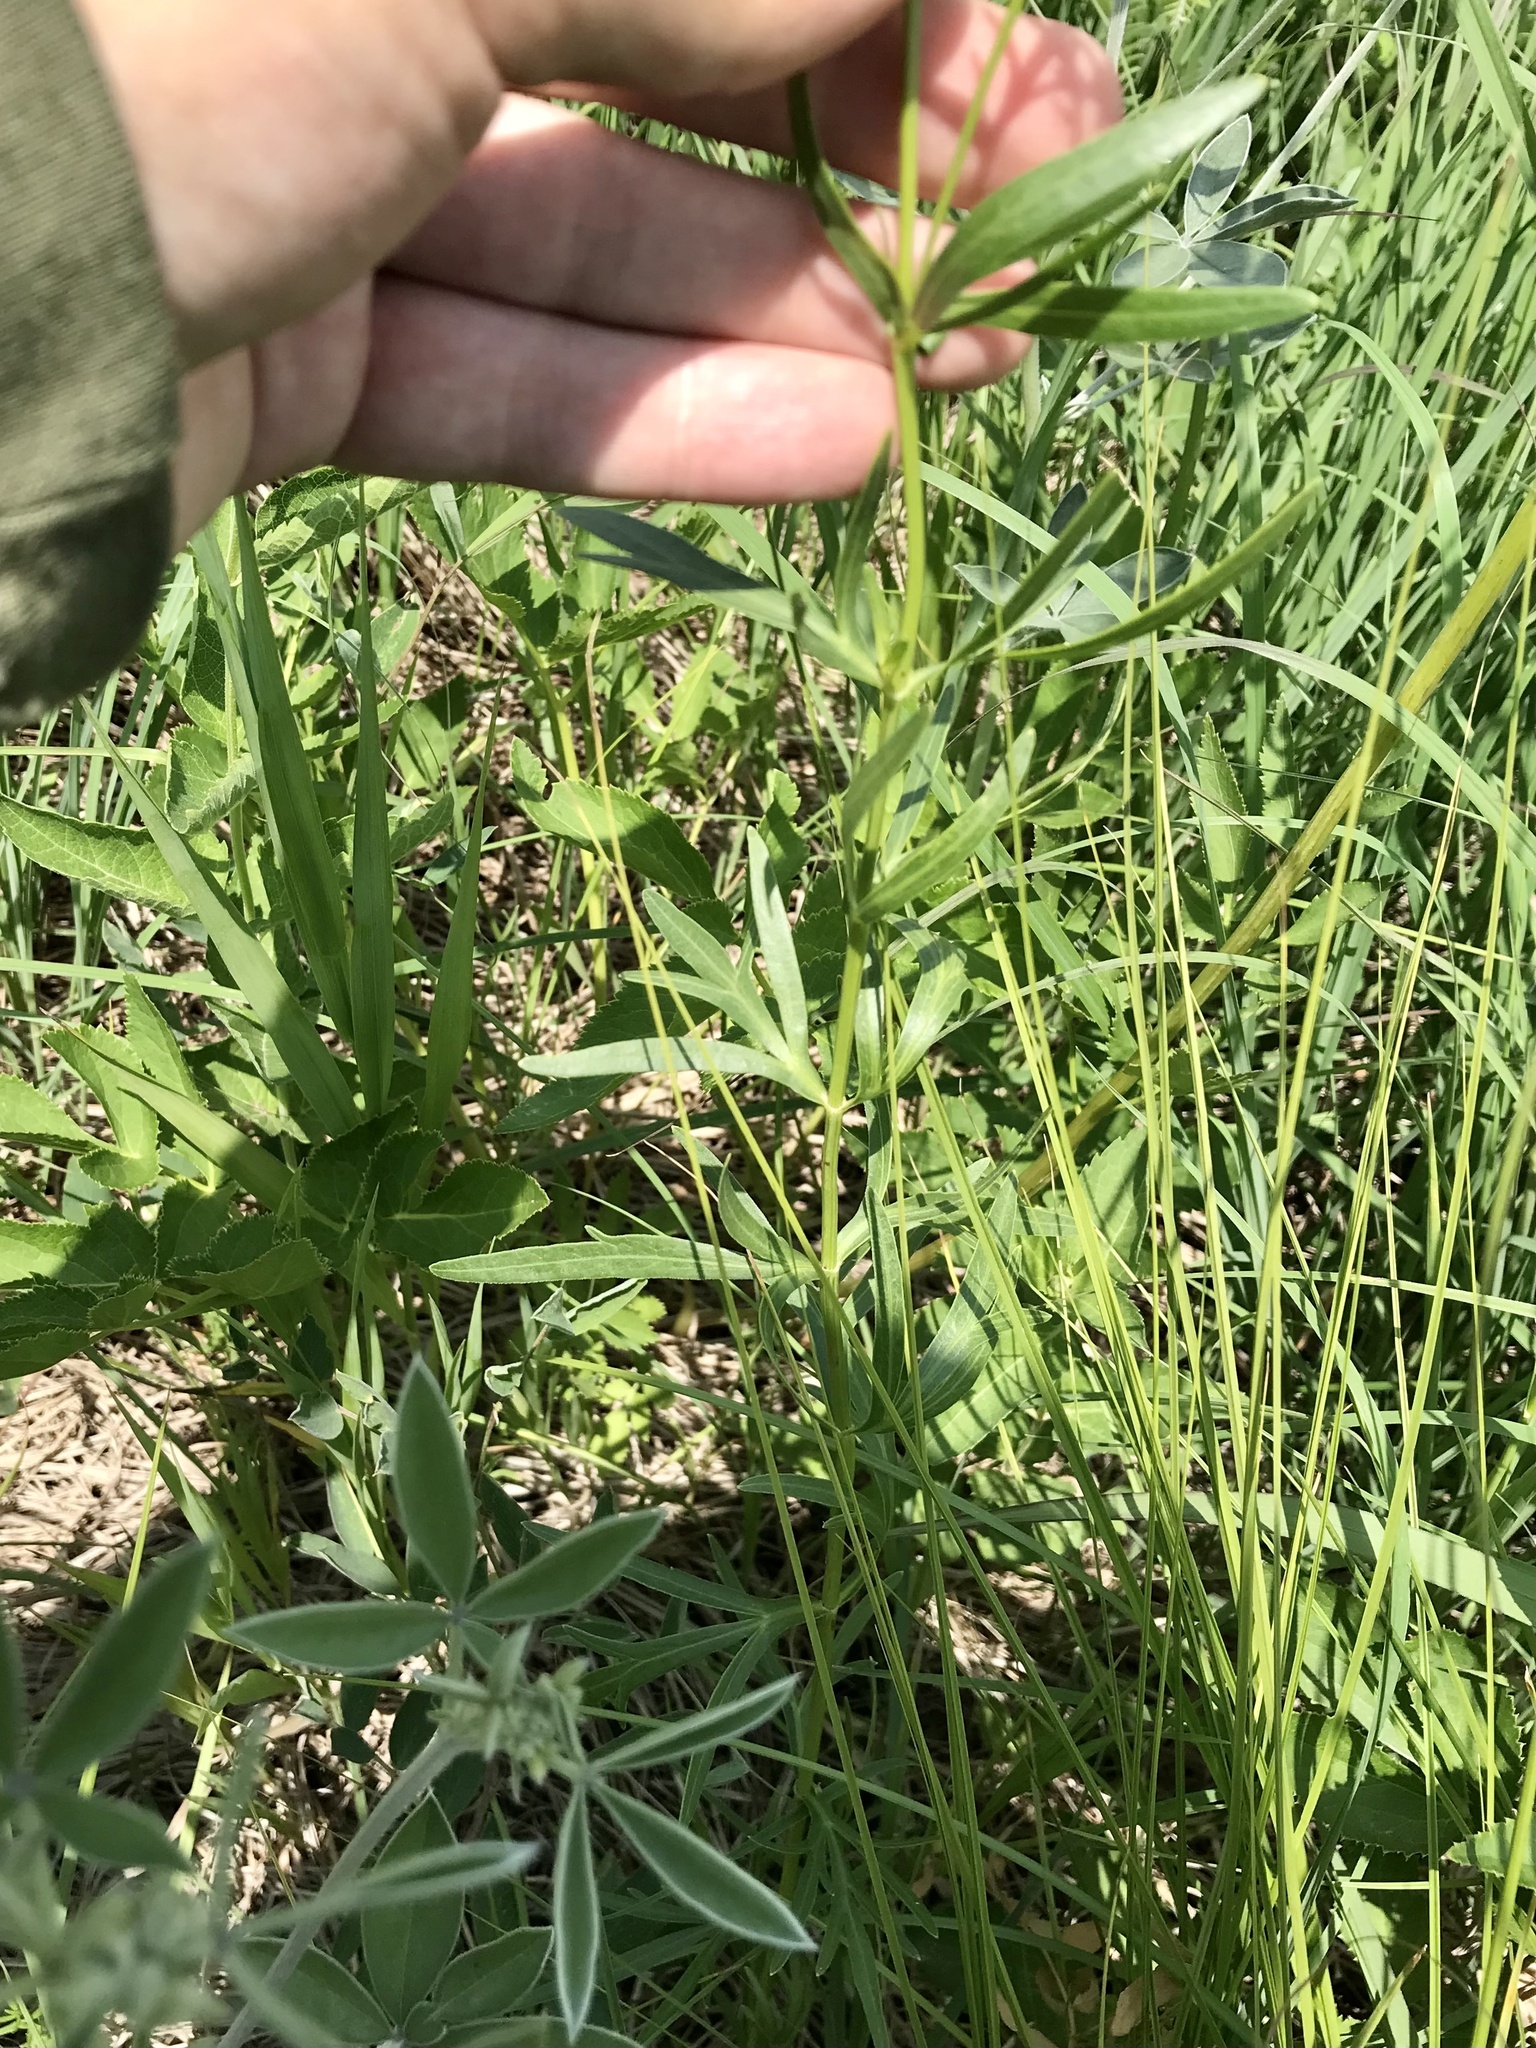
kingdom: Plantae
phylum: Tracheophyta
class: Magnoliopsida
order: Asterales
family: Asteraceae
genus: Coreopsis
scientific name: Coreopsis palmata
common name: Prairie coreopsis
